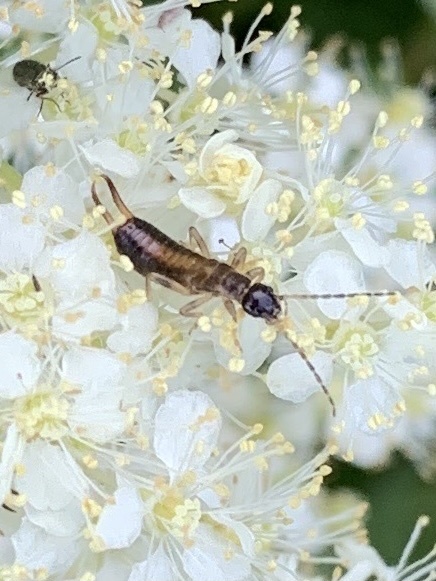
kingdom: Animalia
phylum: Arthropoda
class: Insecta
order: Dermaptera
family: Forficulidae
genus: Apterygida
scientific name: Apterygida albipennis
